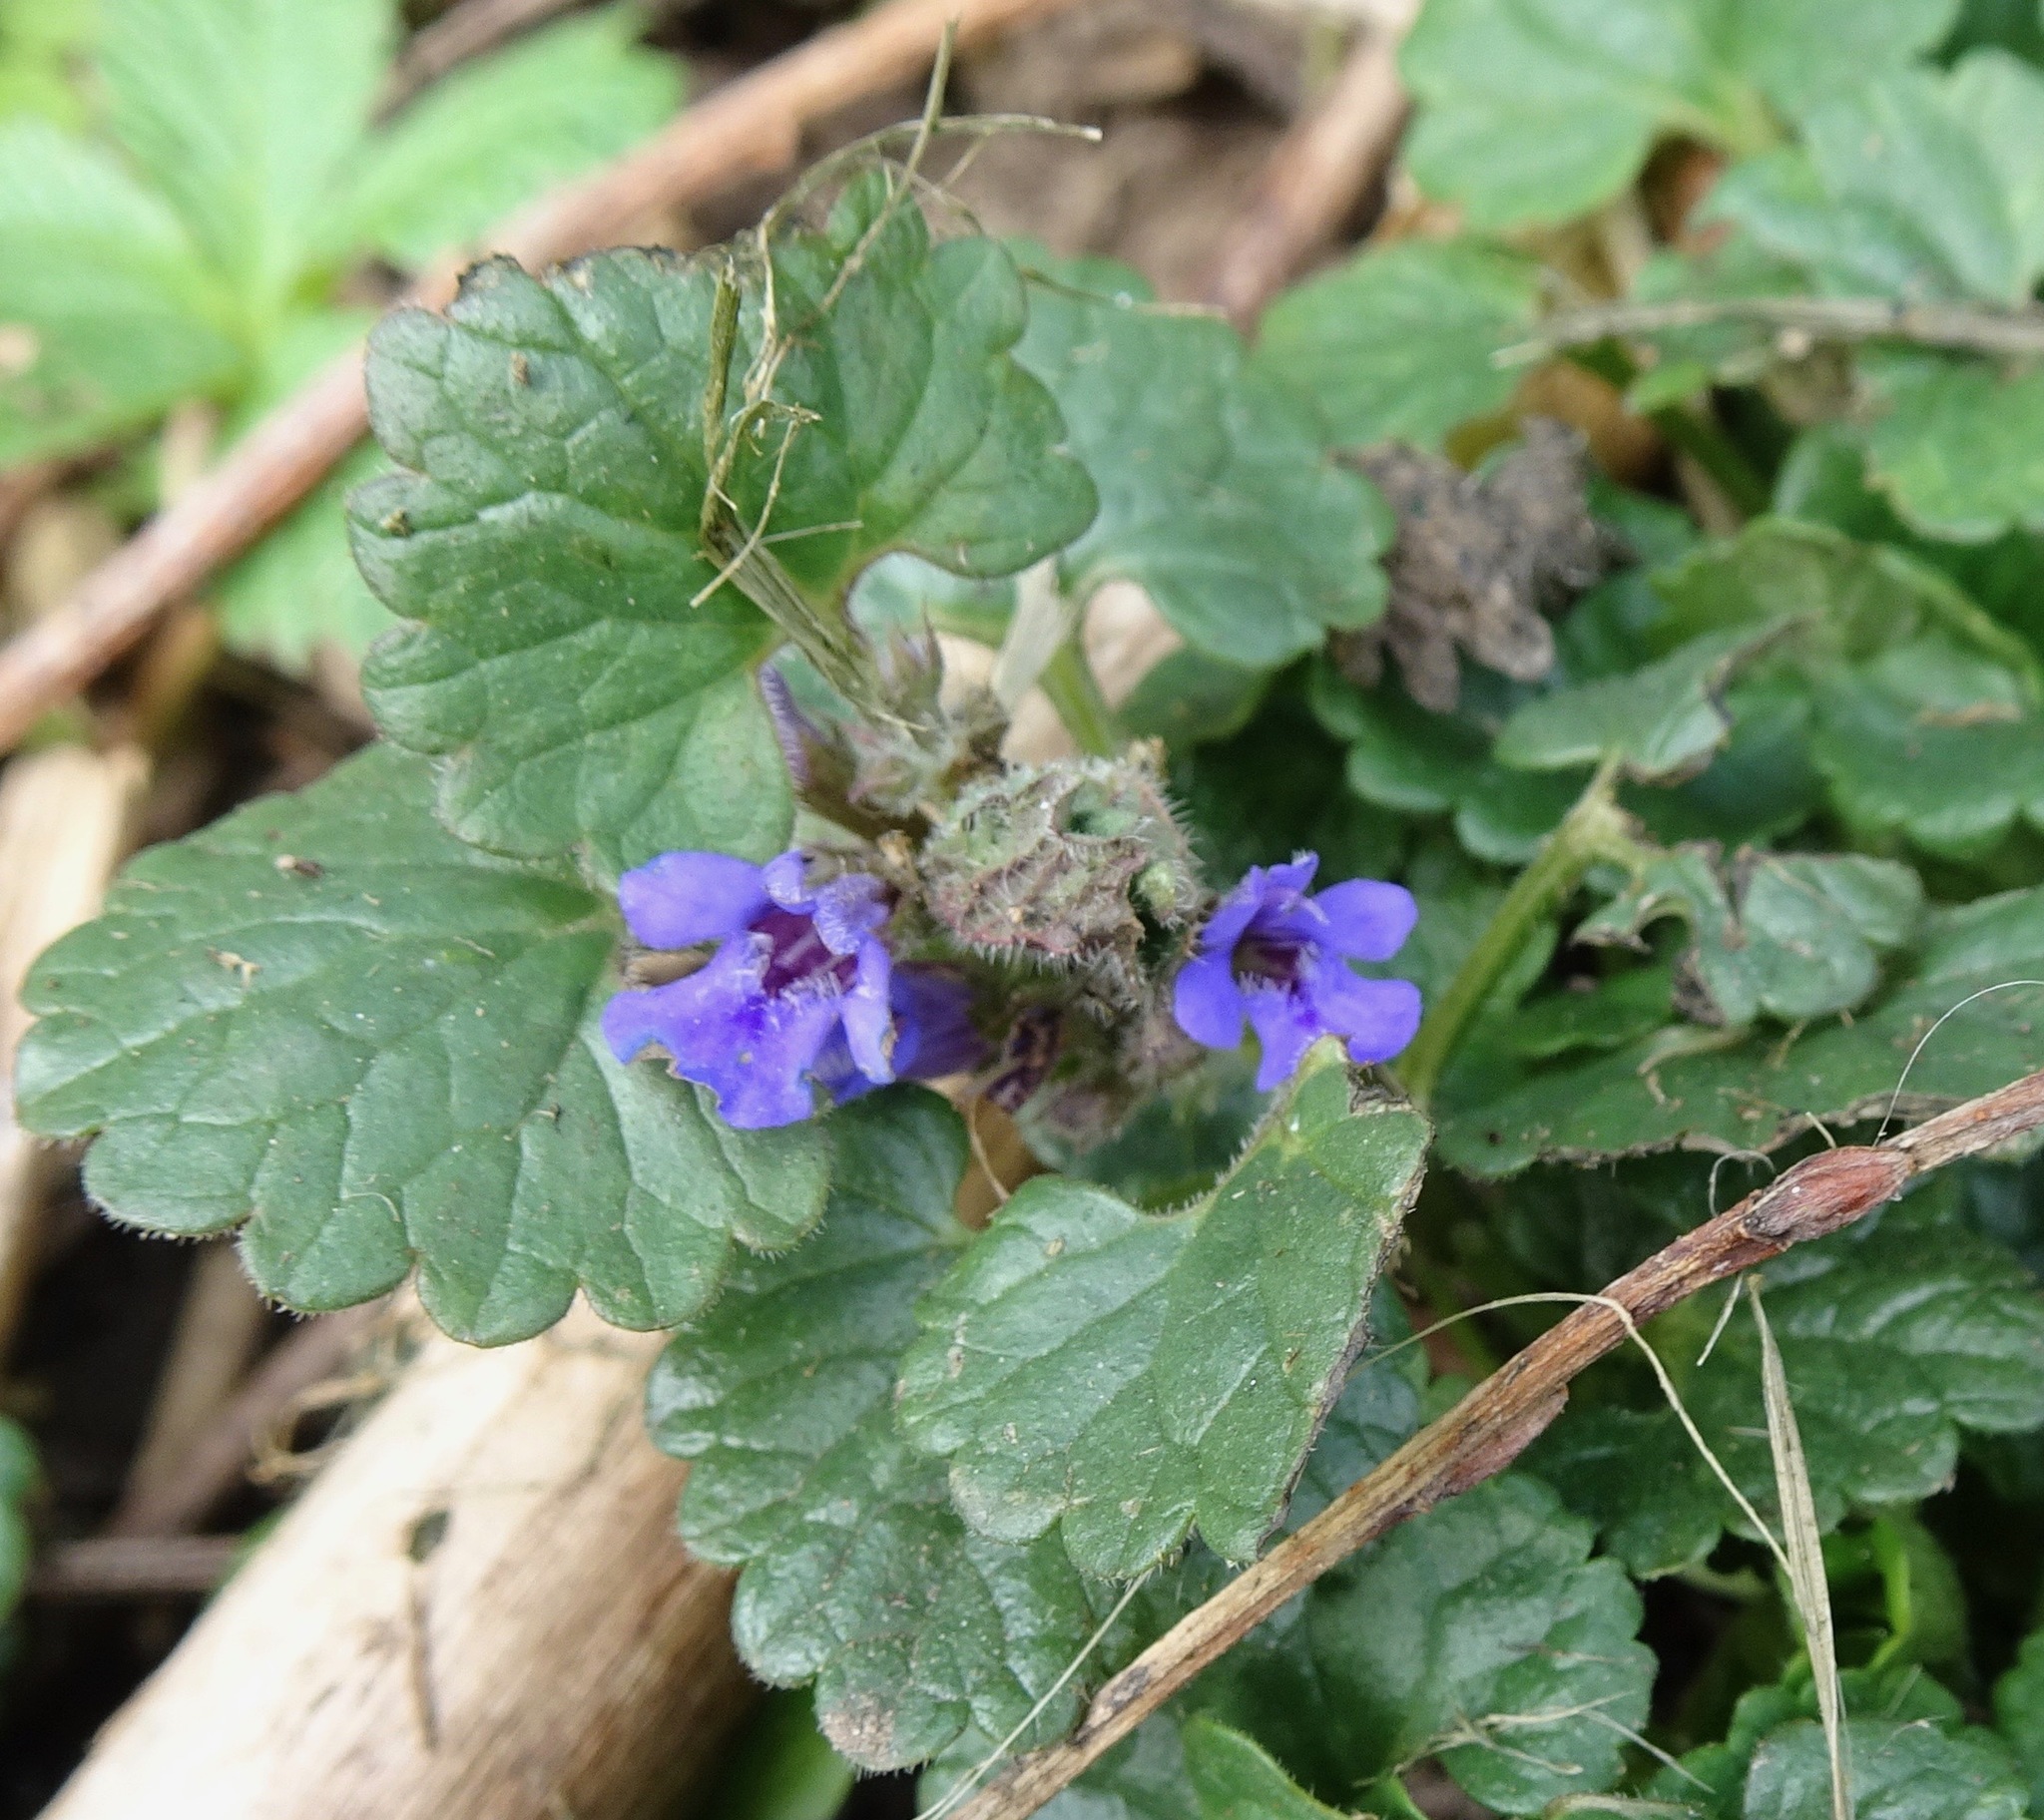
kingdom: Plantae
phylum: Tracheophyta
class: Magnoliopsida
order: Lamiales
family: Lamiaceae
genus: Glechoma
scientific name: Glechoma hederacea
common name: Ground ivy
